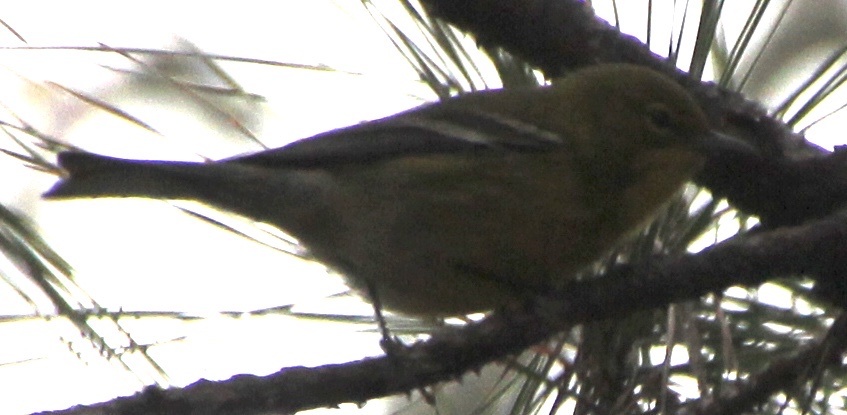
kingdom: Animalia
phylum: Chordata
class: Aves
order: Passeriformes
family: Parulidae
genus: Setophaga
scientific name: Setophaga pinus
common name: Pine warbler
